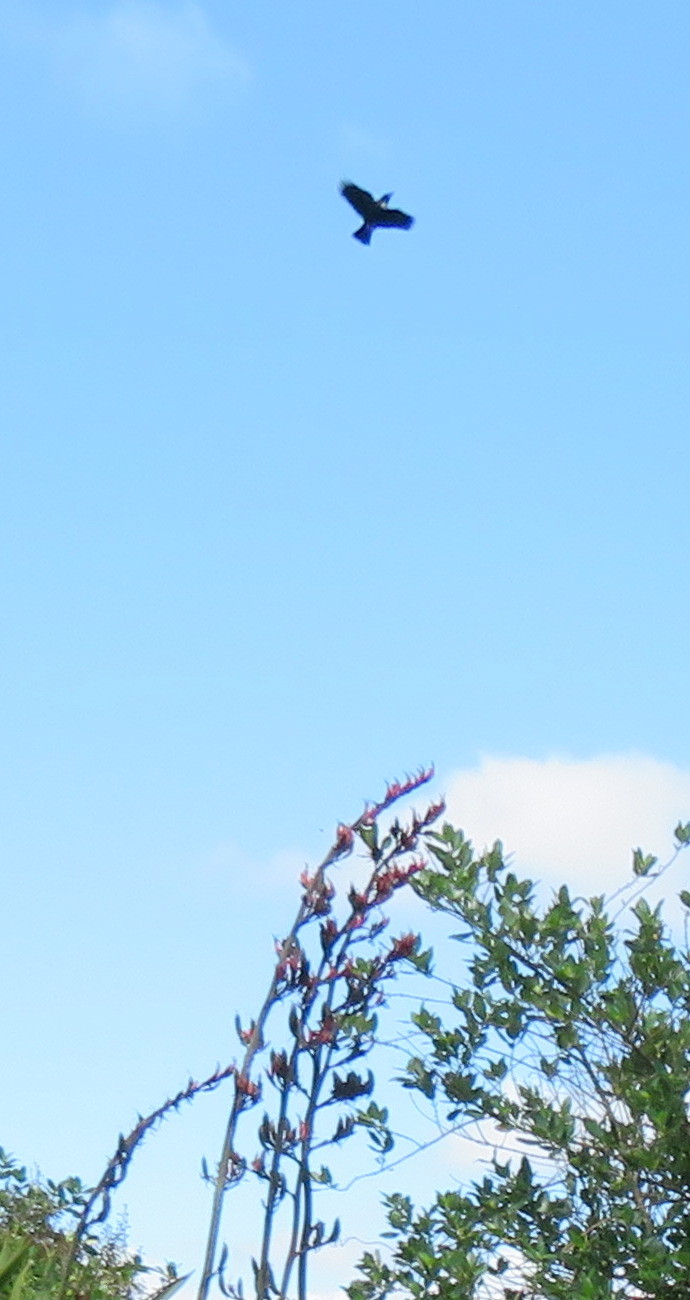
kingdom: Animalia
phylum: Chordata
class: Aves
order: Passeriformes
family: Meliphagidae
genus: Prosthemadera
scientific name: Prosthemadera novaeseelandiae
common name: Tui
